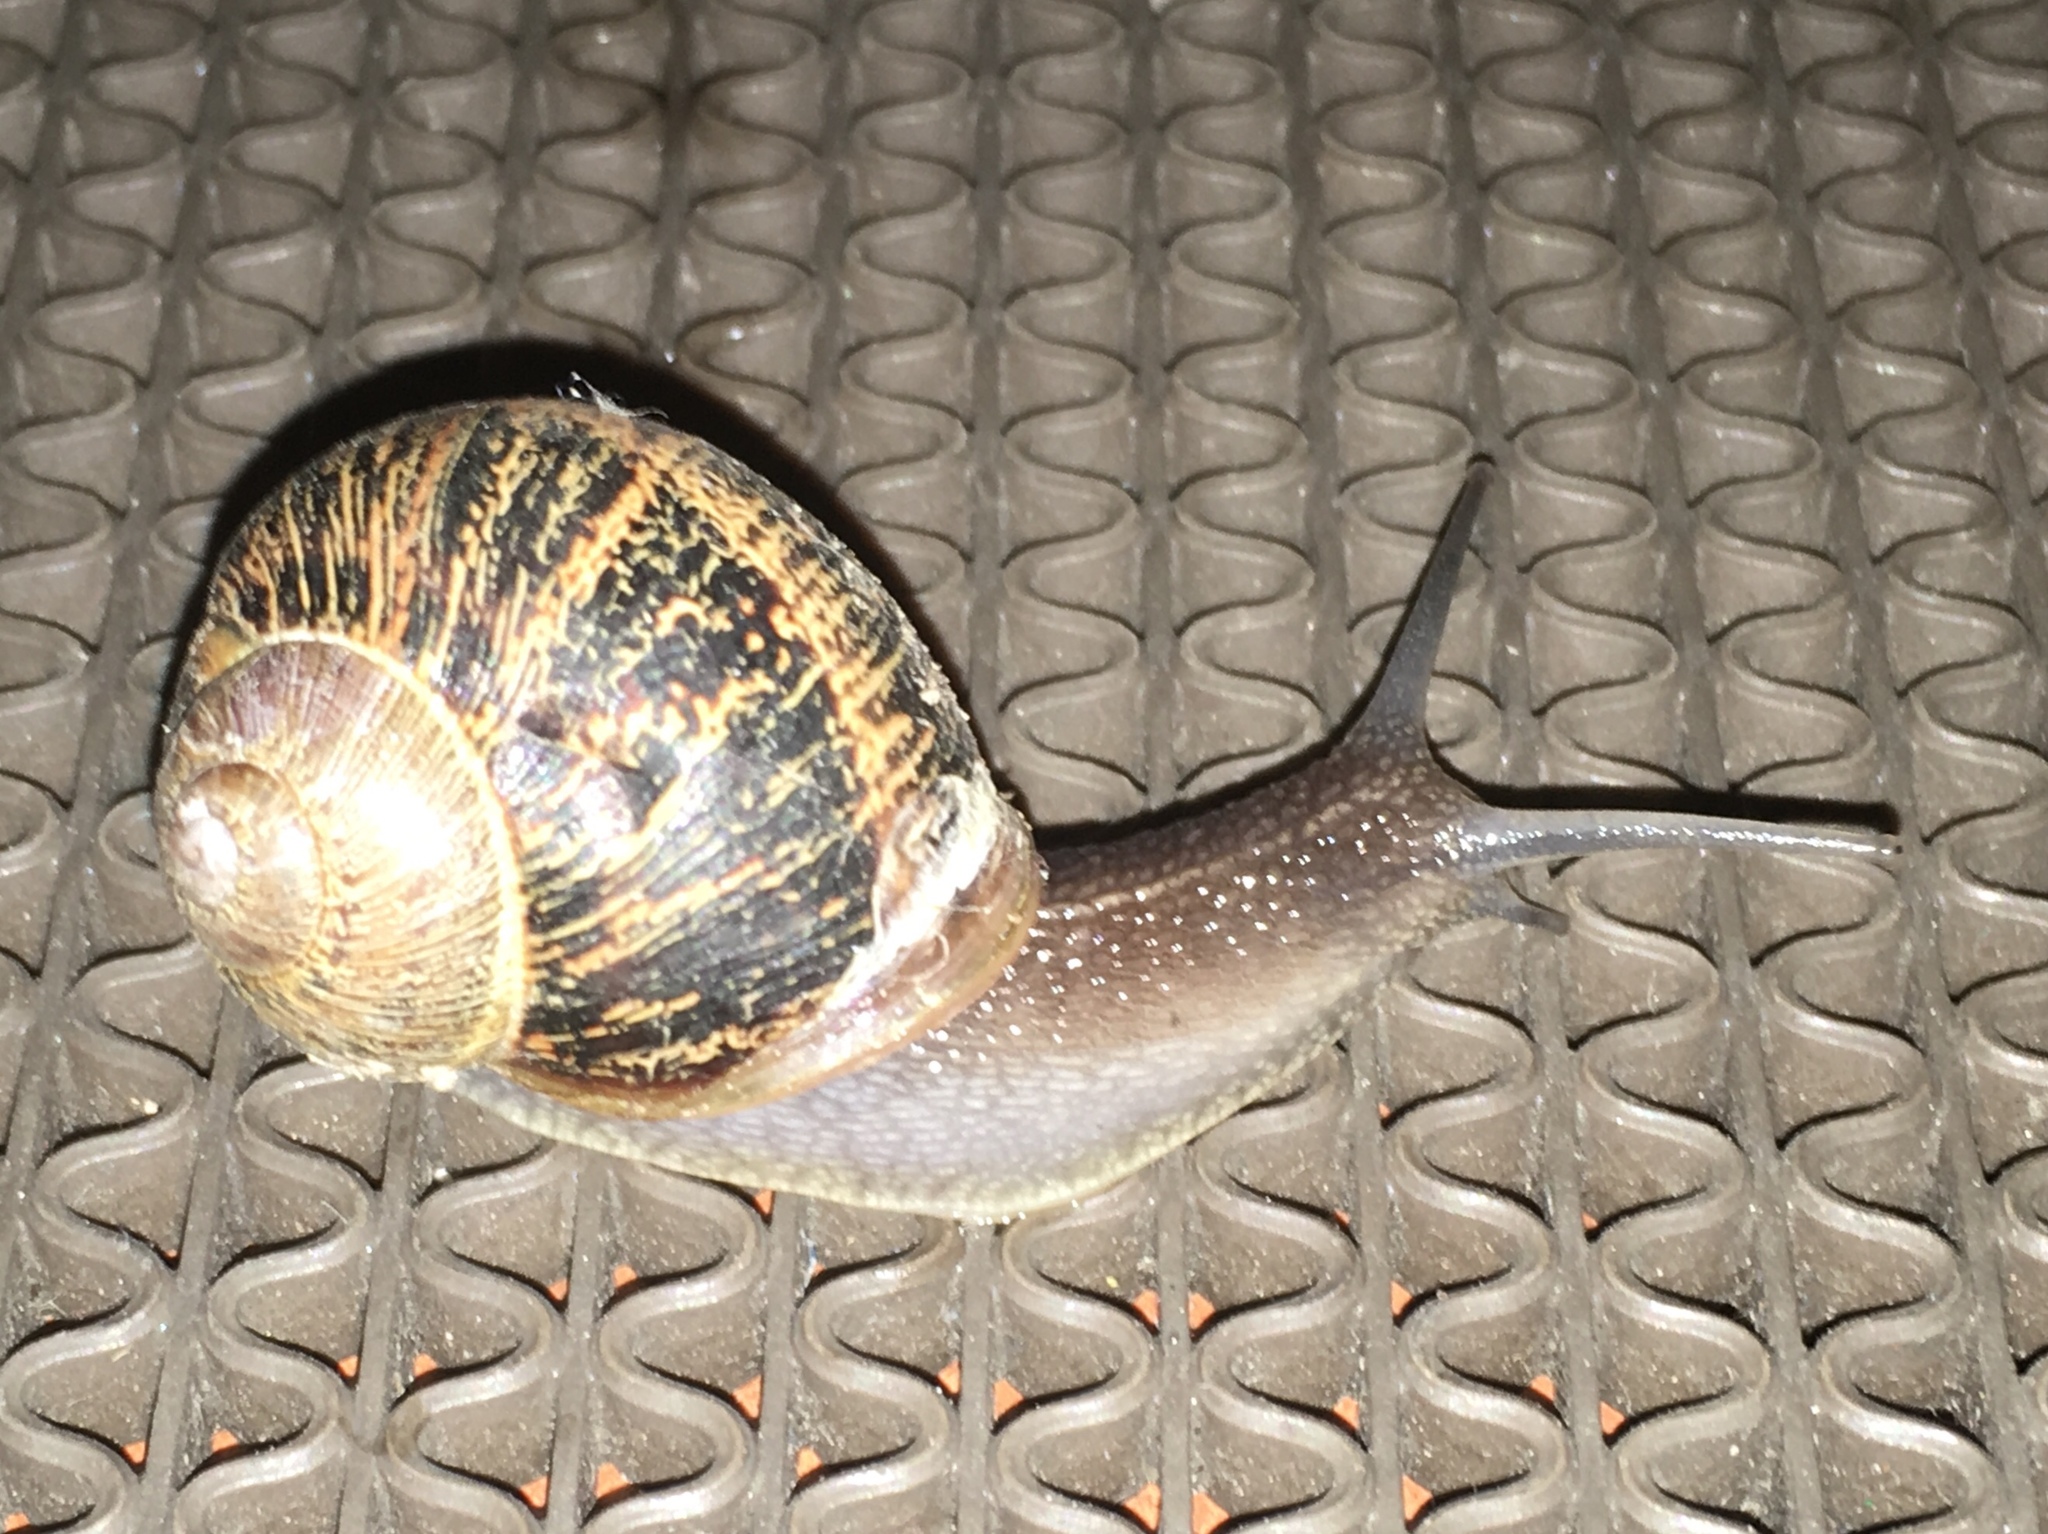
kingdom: Animalia
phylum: Mollusca
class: Gastropoda
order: Stylommatophora
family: Helicidae
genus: Cornu
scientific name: Cornu aspersum
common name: Brown garden snail
